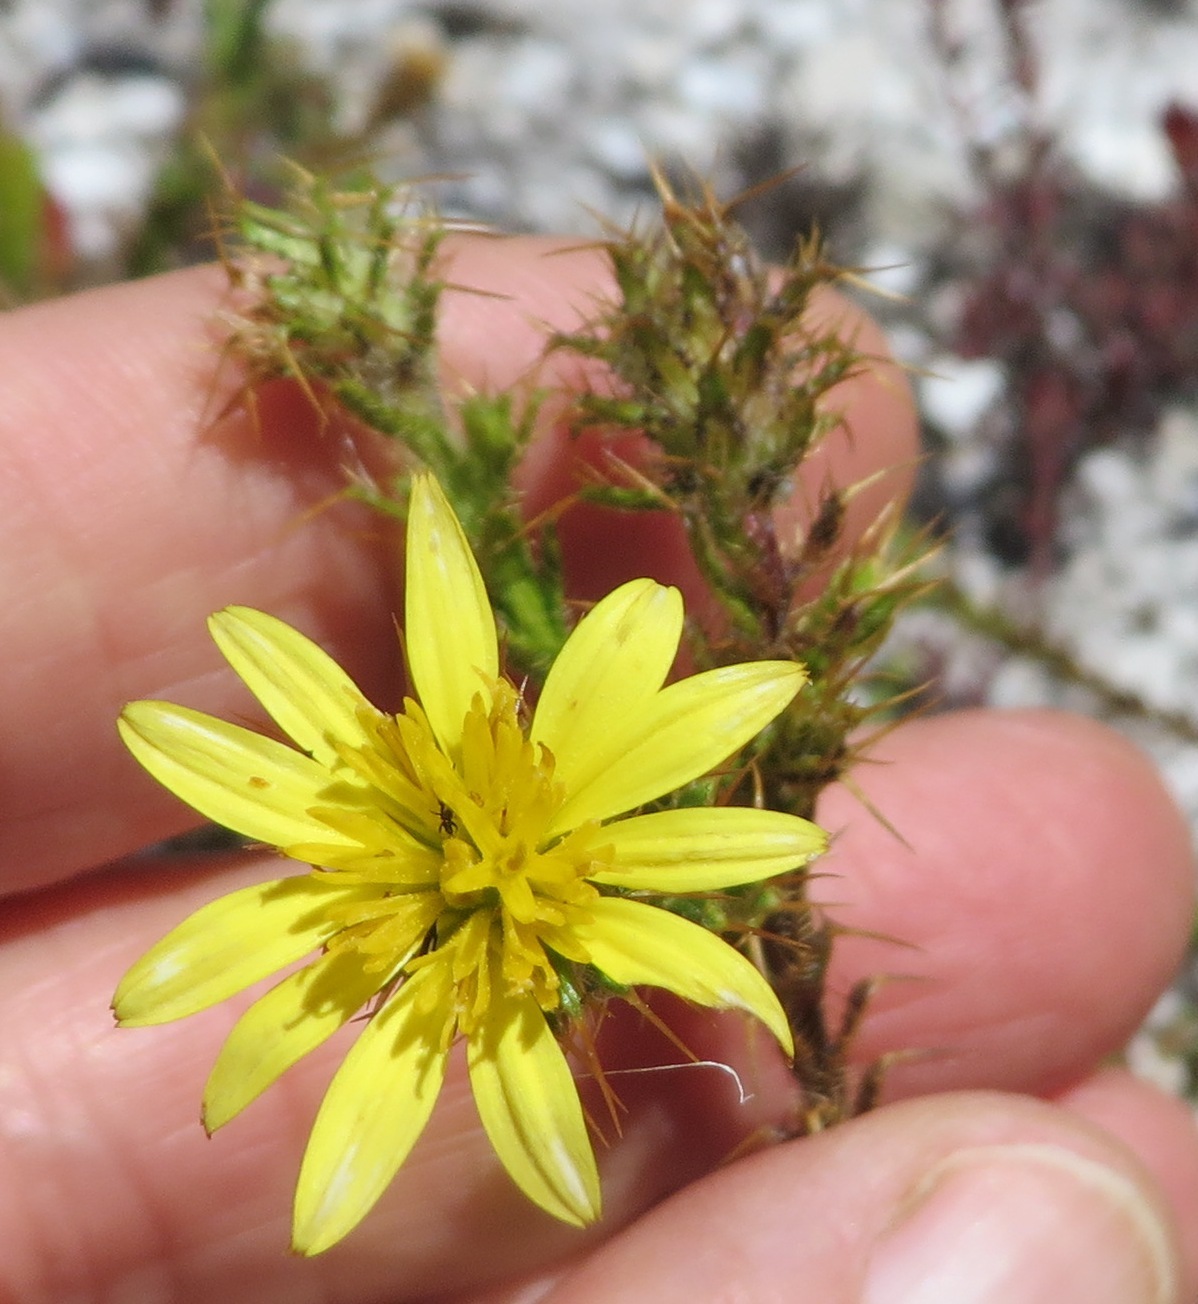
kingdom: Plantae
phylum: Tracheophyta
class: Magnoliopsida
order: Asterales
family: Asteraceae
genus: Cullumia
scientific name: Cullumia reticulata
